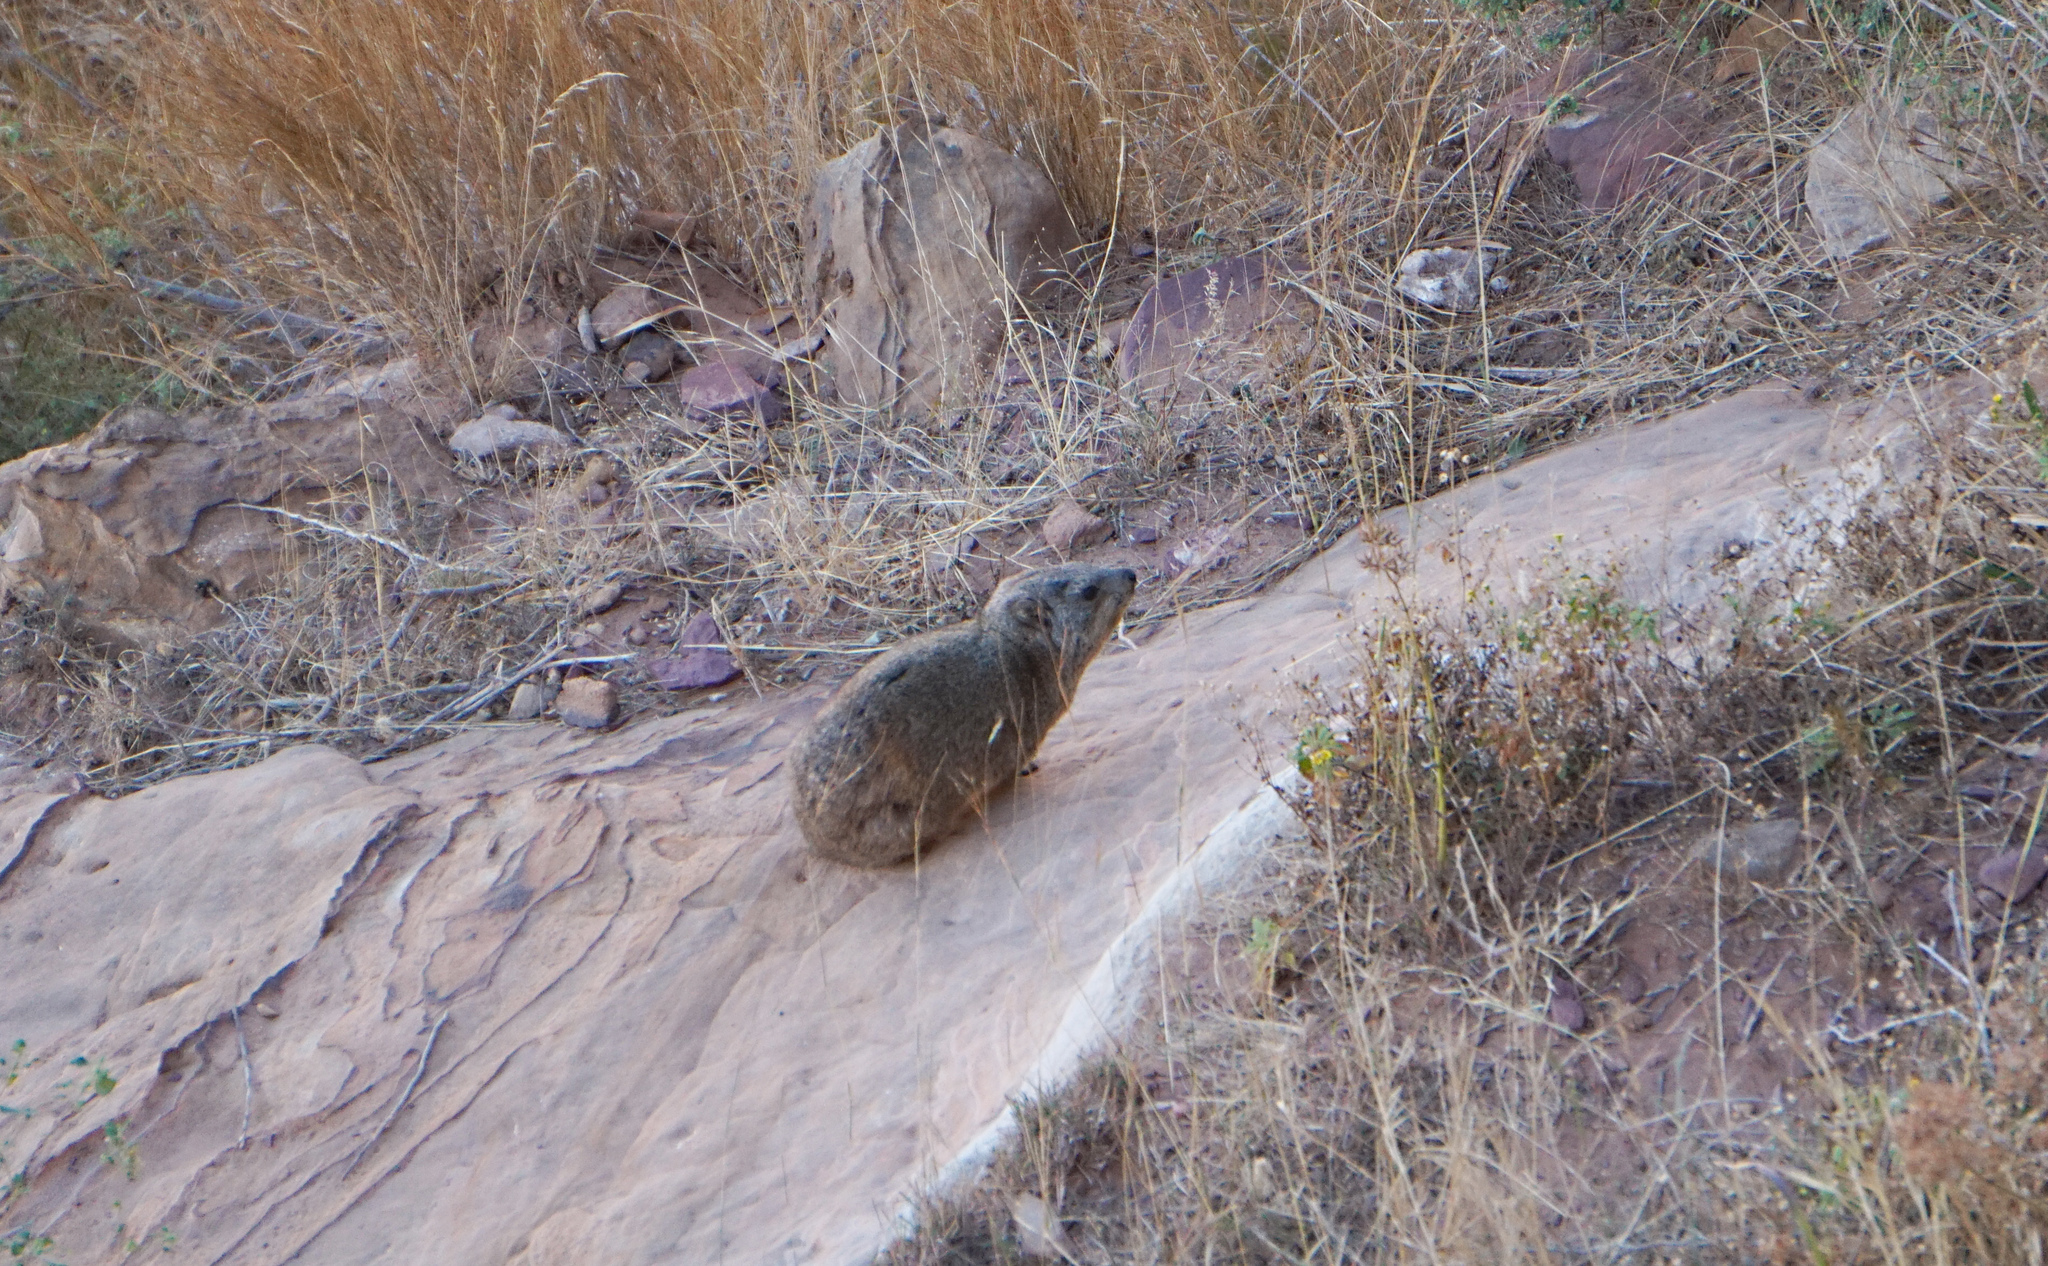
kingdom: Animalia
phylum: Chordata
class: Mammalia
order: Hyracoidea
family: Procaviidae
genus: Procavia
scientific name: Procavia capensis
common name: Rock hyrax
